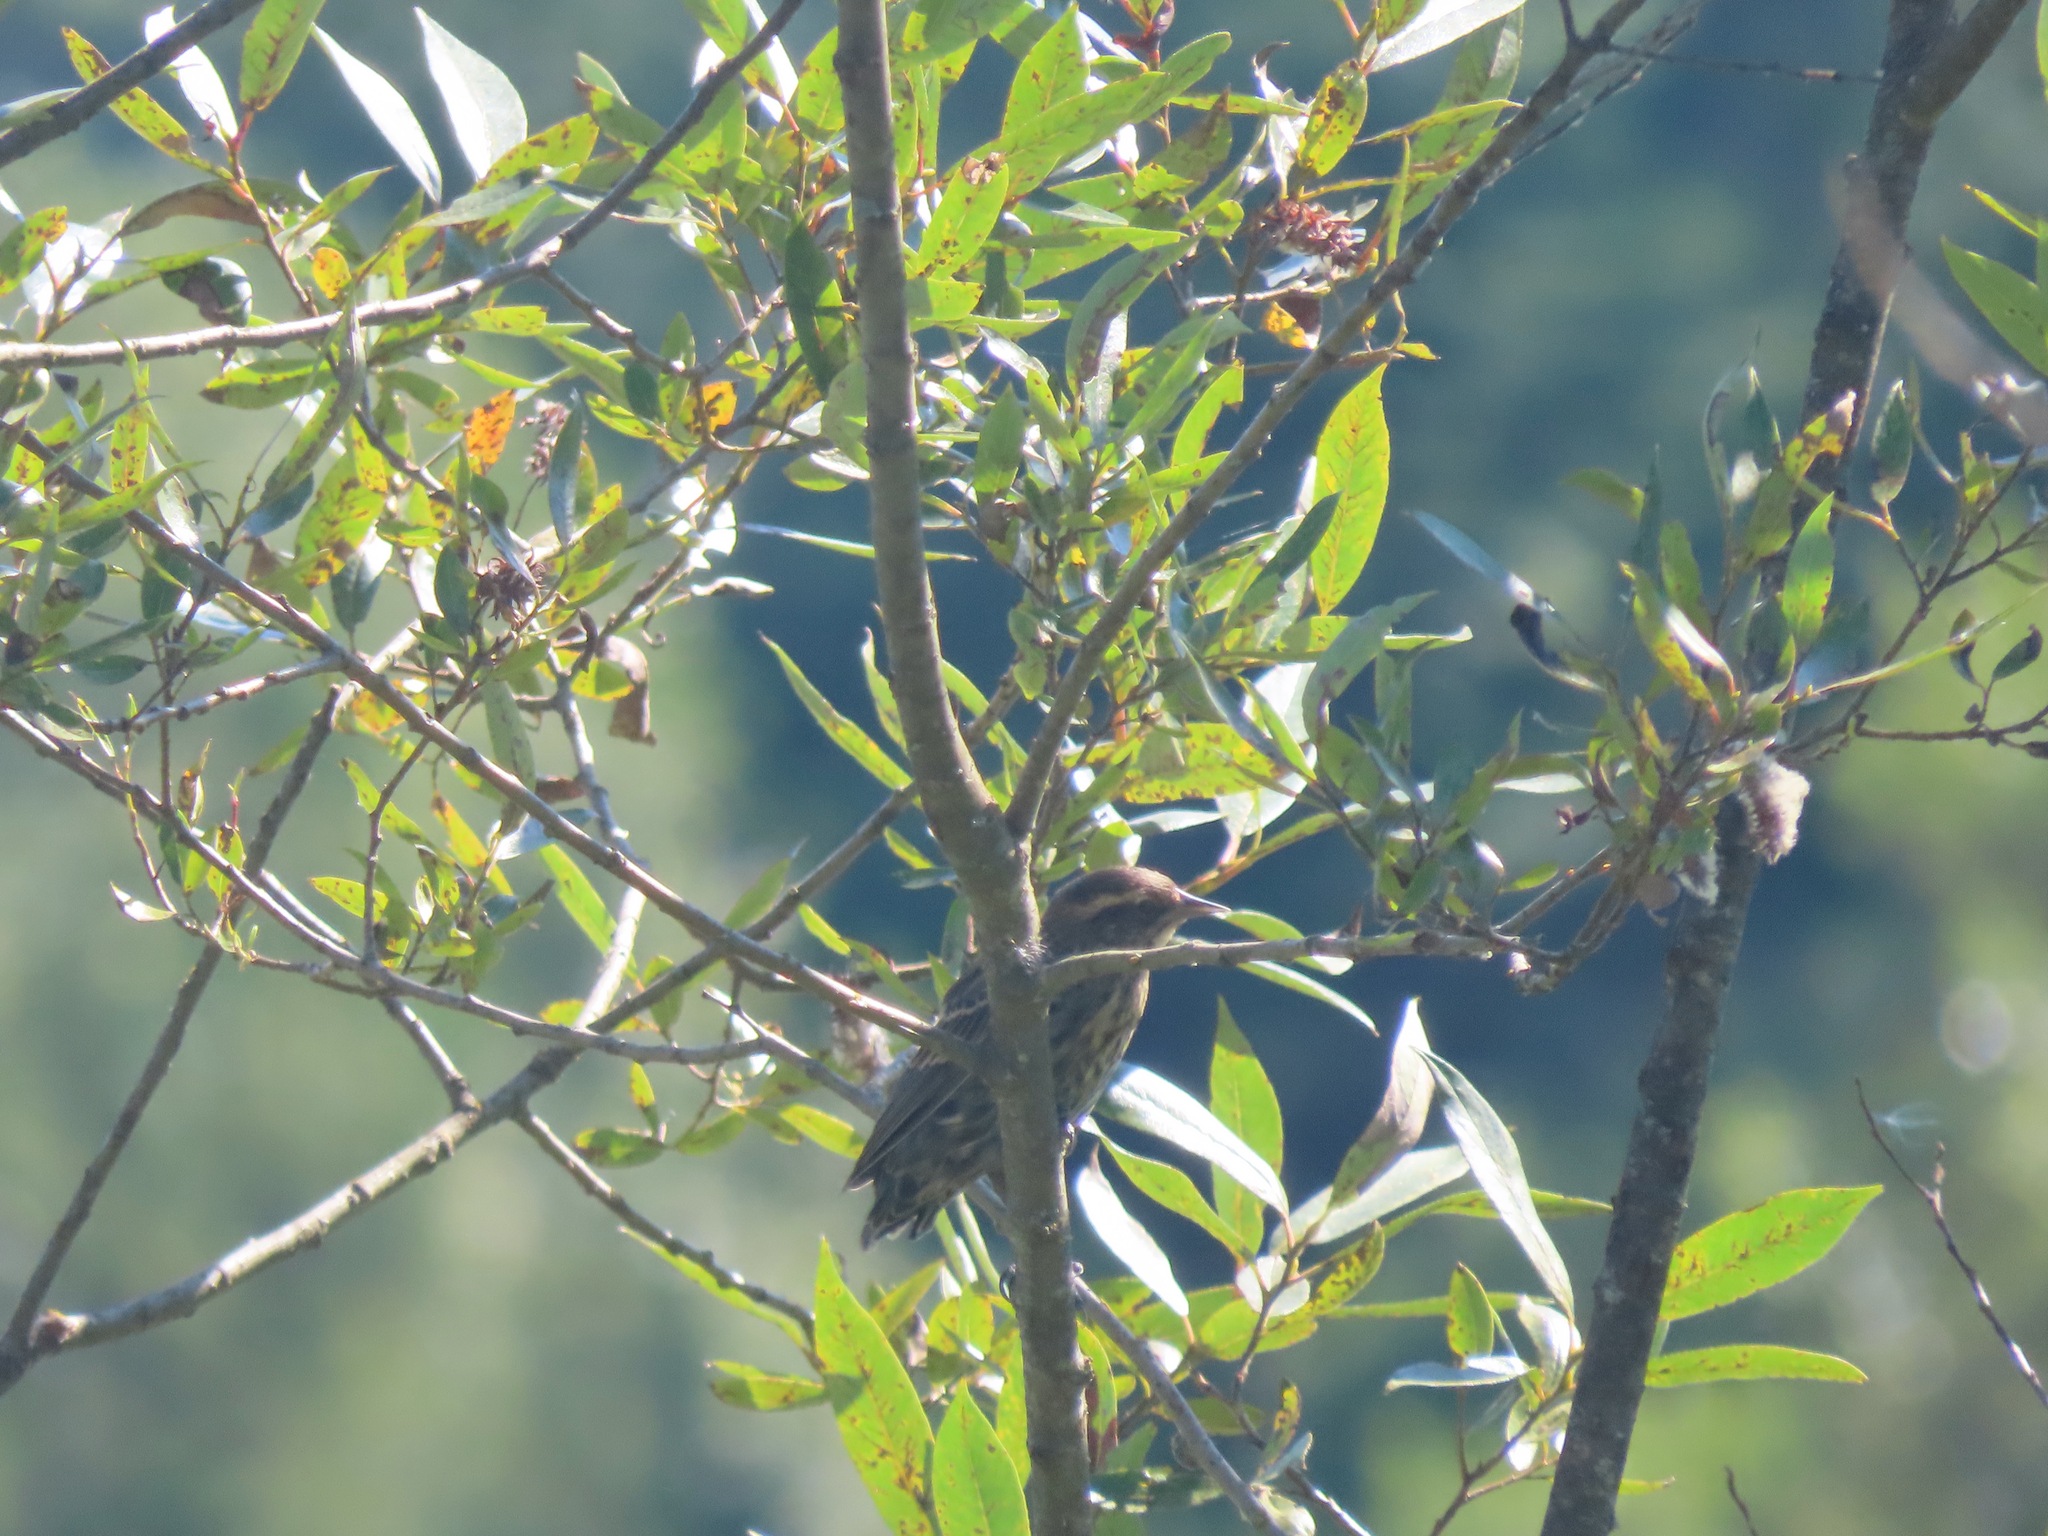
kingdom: Animalia
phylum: Chordata
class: Aves
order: Passeriformes
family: Icteridae
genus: Agelaius
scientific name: Agelaius phoeniceus
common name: Red-winged blackbird
